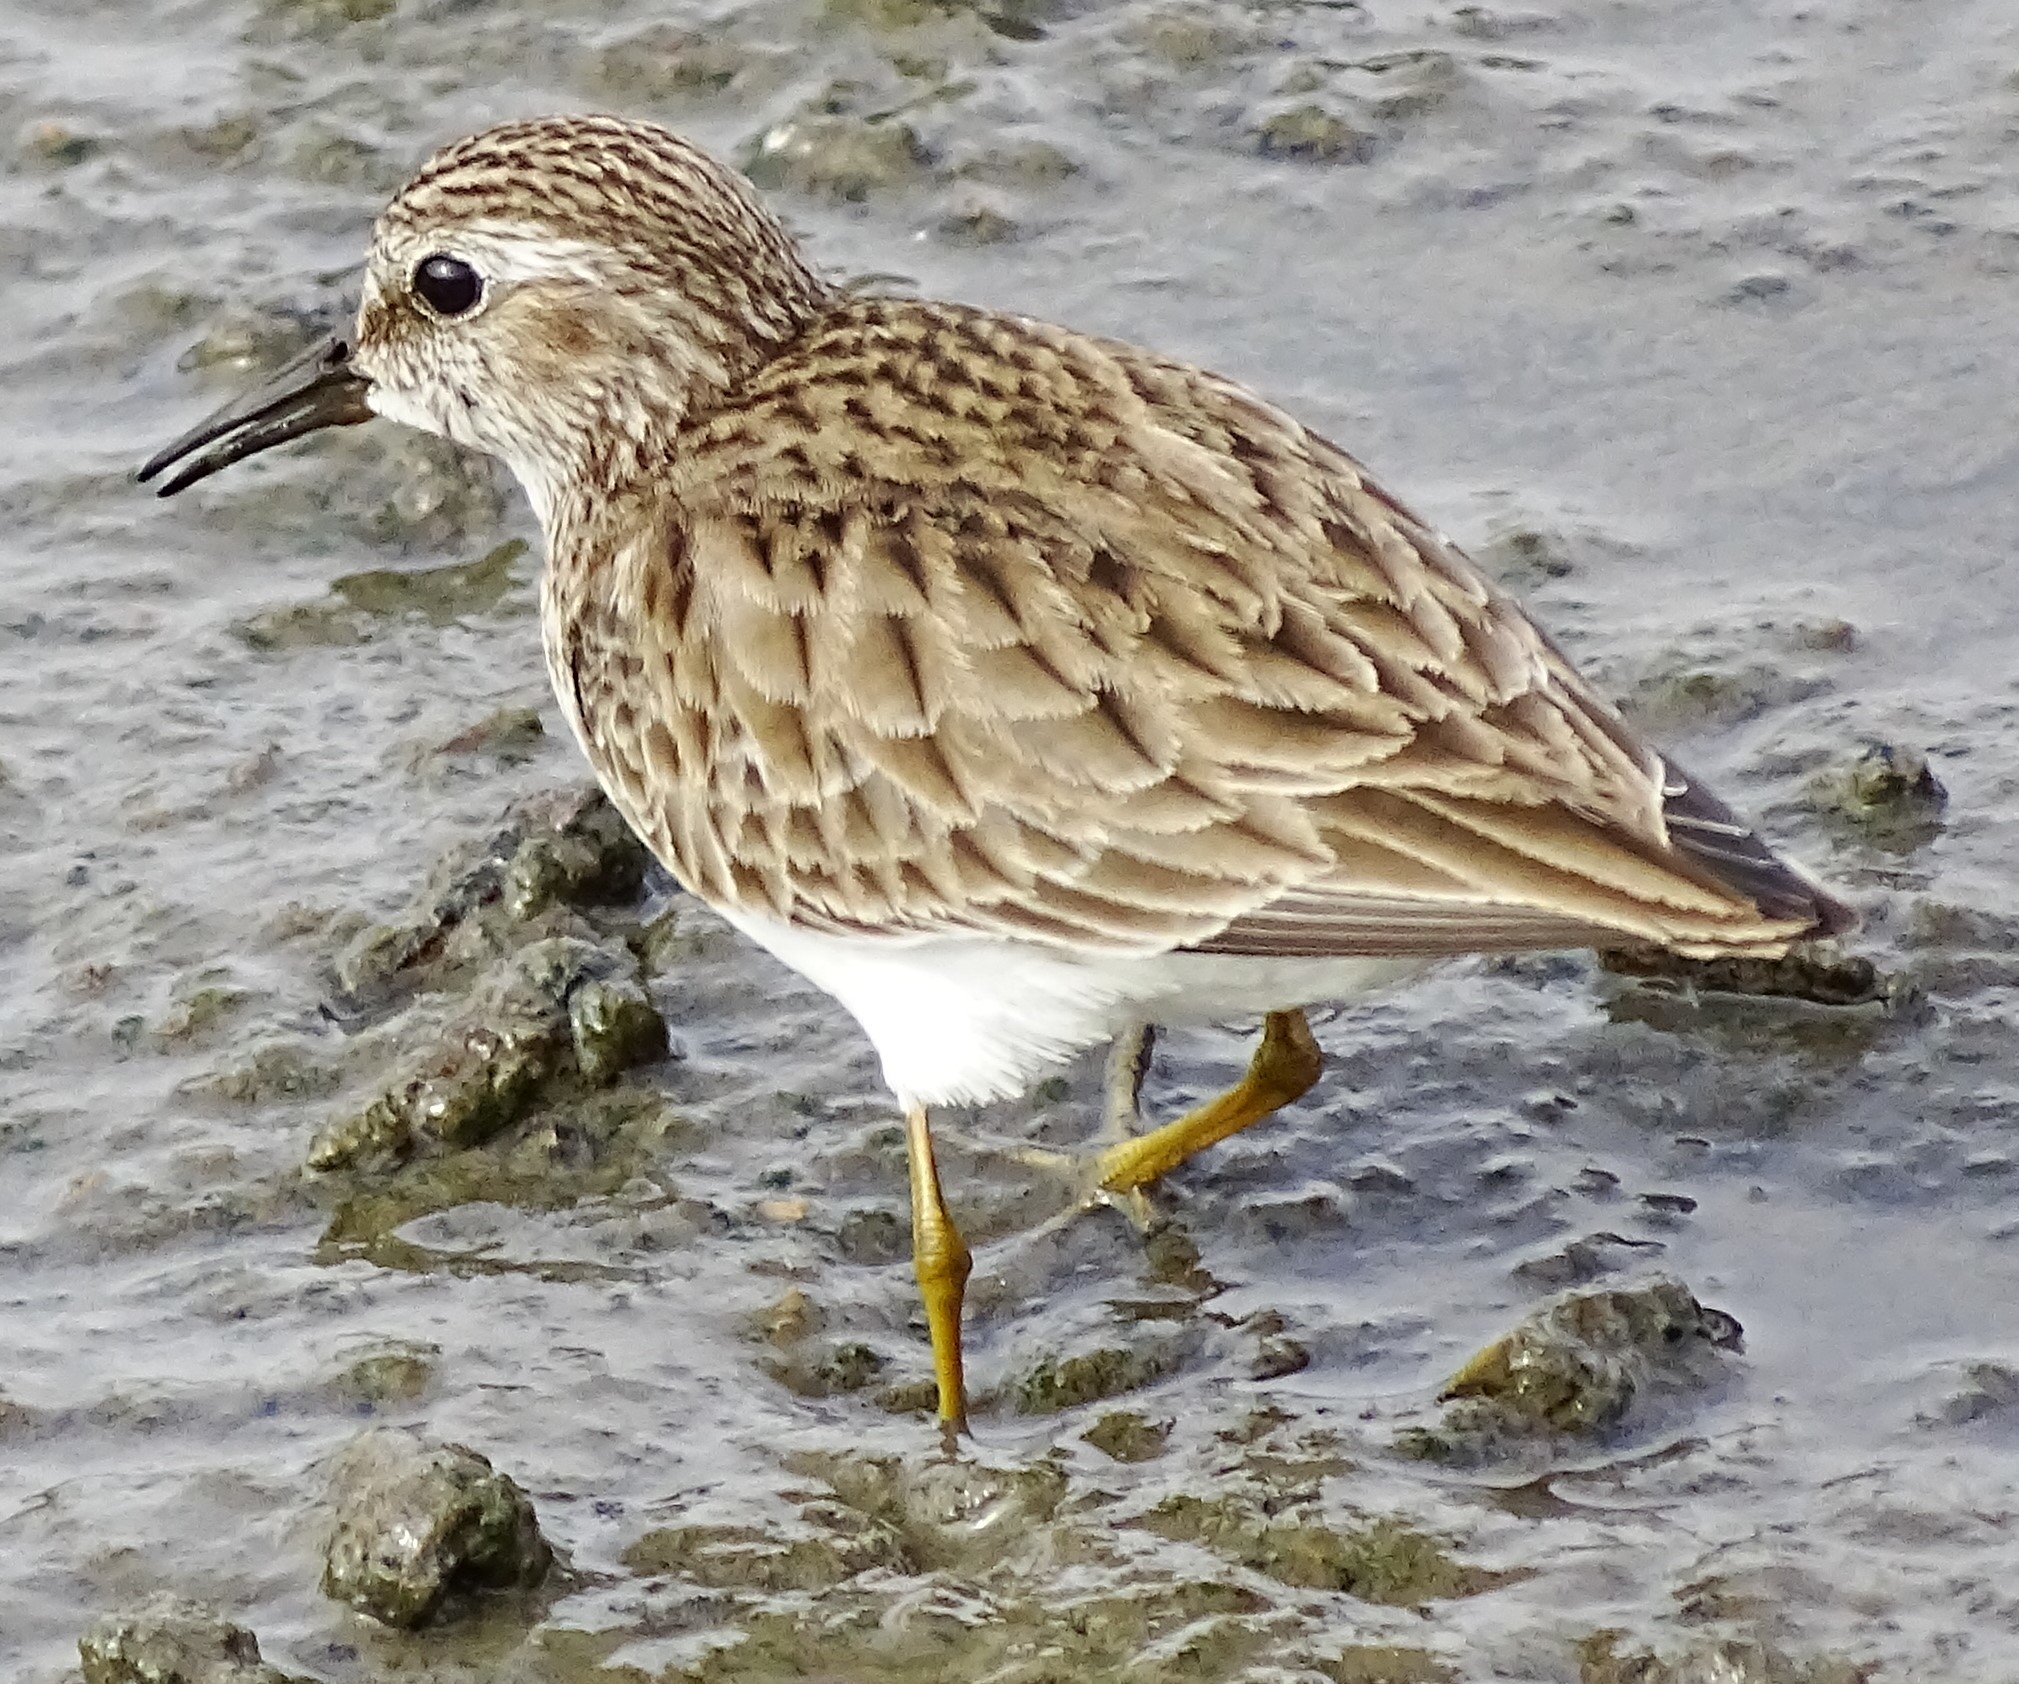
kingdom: Animalia
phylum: Chordata
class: Aves
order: Charadriiformes
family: Scolopacidae
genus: Calidris
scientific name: Calidris minutilla
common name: Least sandpiper
